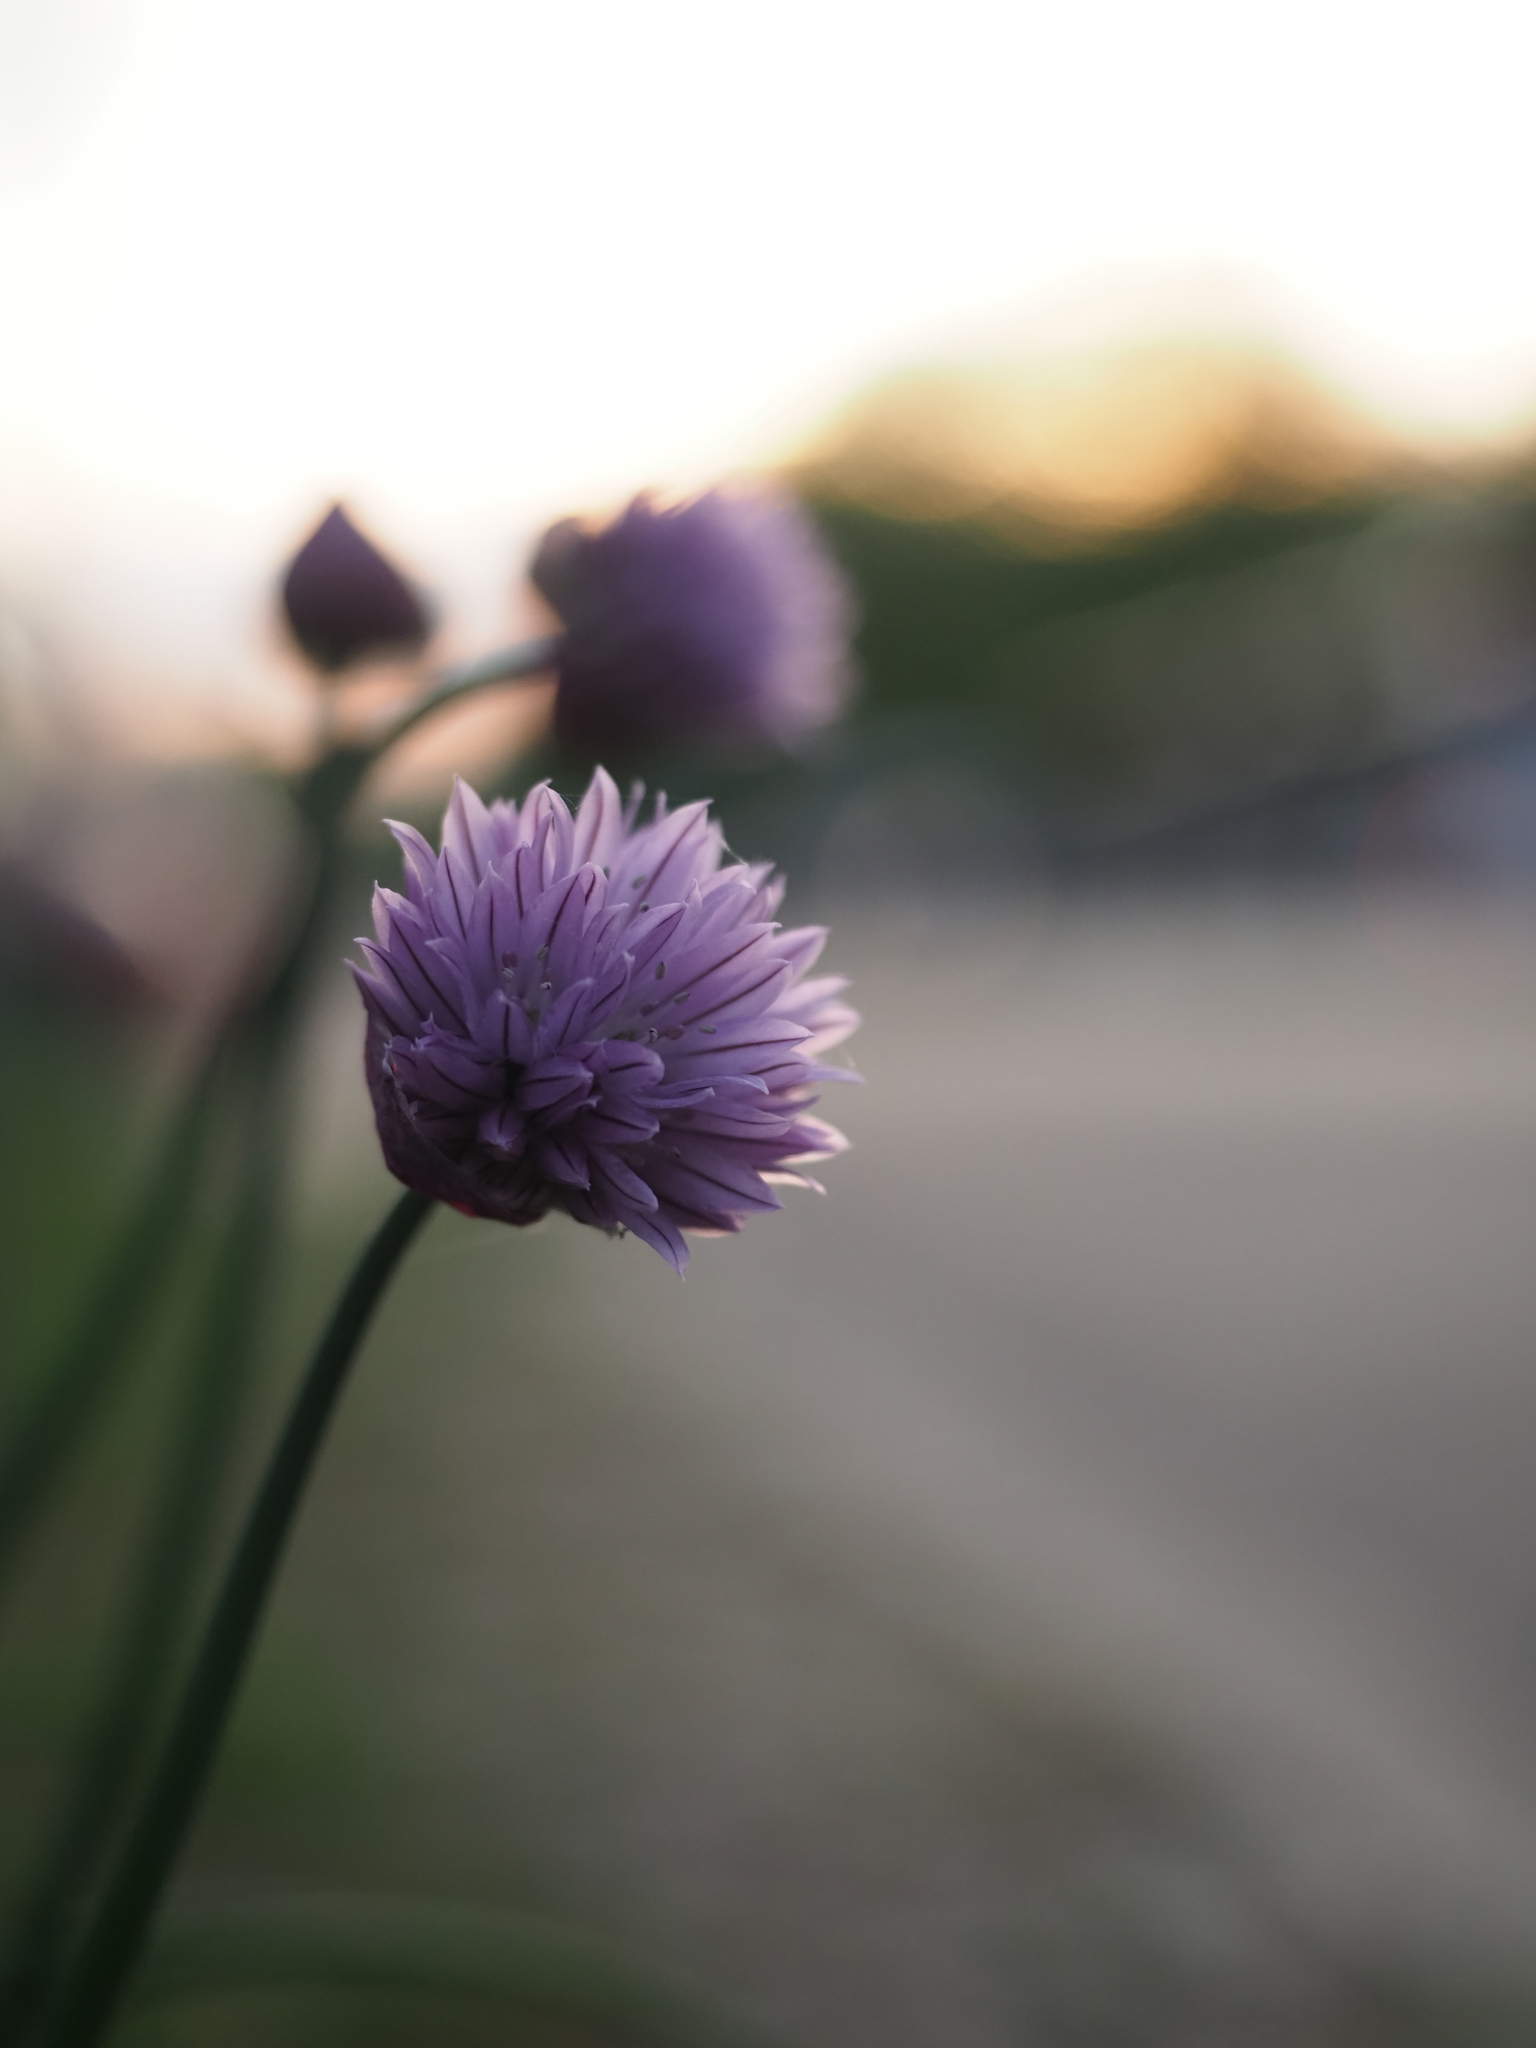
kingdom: Plantae
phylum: Tracheophyta
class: Liliopsida
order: Asparagales
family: Amaryllidaceae
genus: Allium
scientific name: Allium schoenoprasum
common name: Chives
